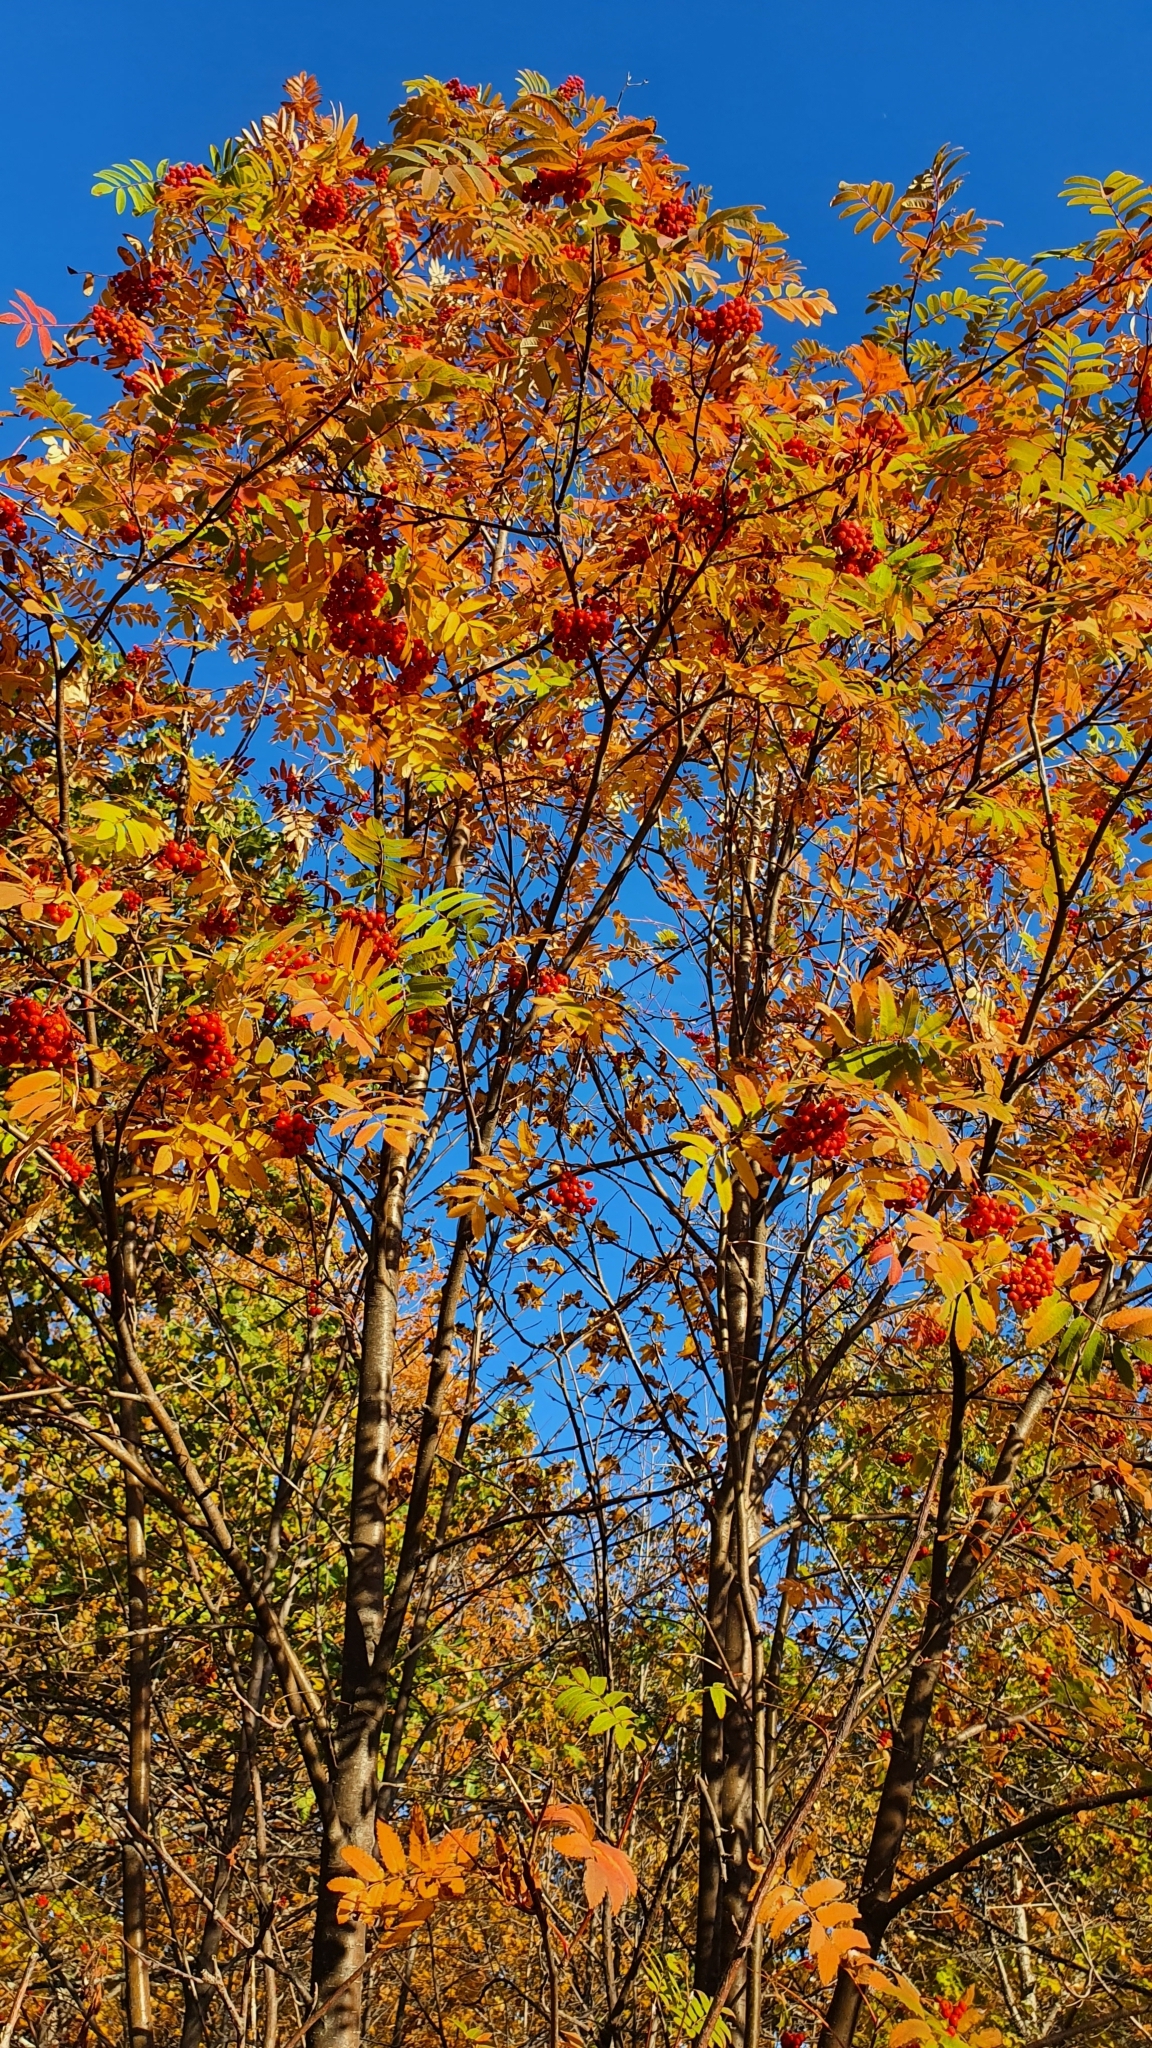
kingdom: Plantae
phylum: Tracheophyta
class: Magnoliopsida
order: Rosales
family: Rosaceae
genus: Sorbus
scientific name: Sorbus aucuparia
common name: Rowan
